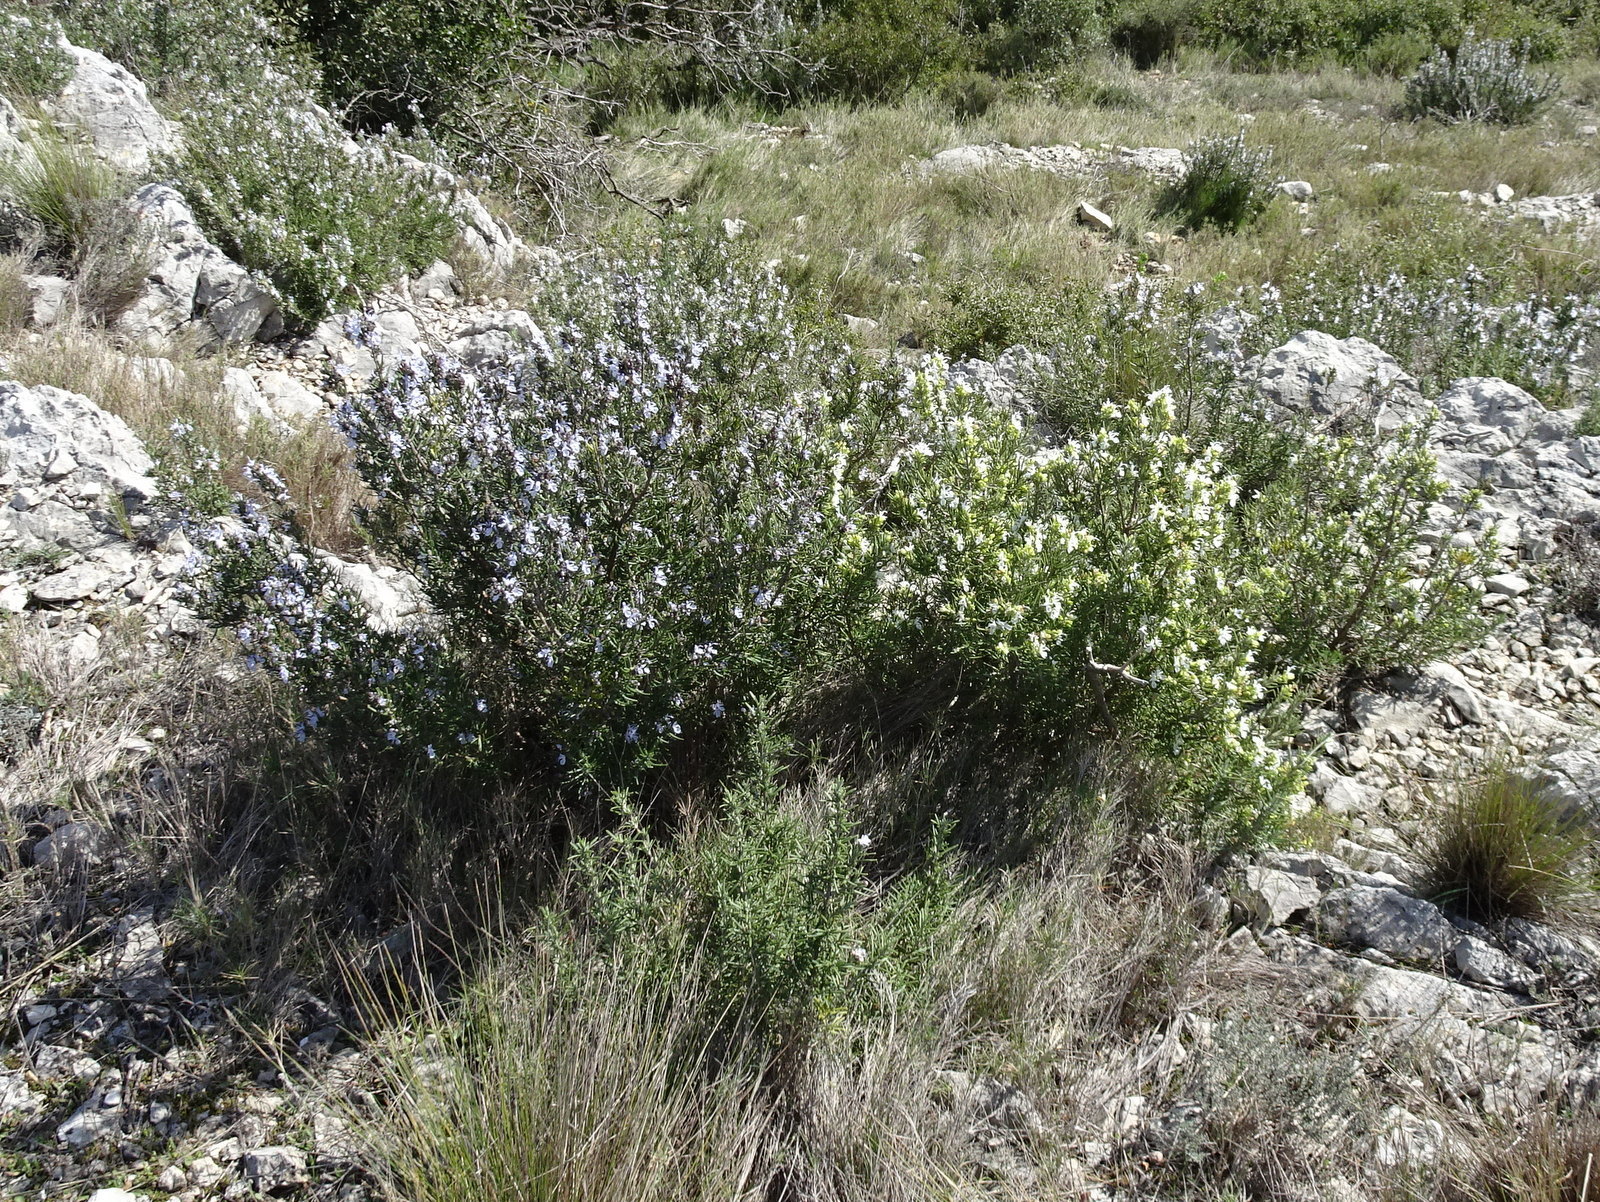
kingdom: Plantae
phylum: Tracheophyta
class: Magnoliopsida
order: Lamiales
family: Lamiaceae
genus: Salvia
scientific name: Salvia rosmarinus
